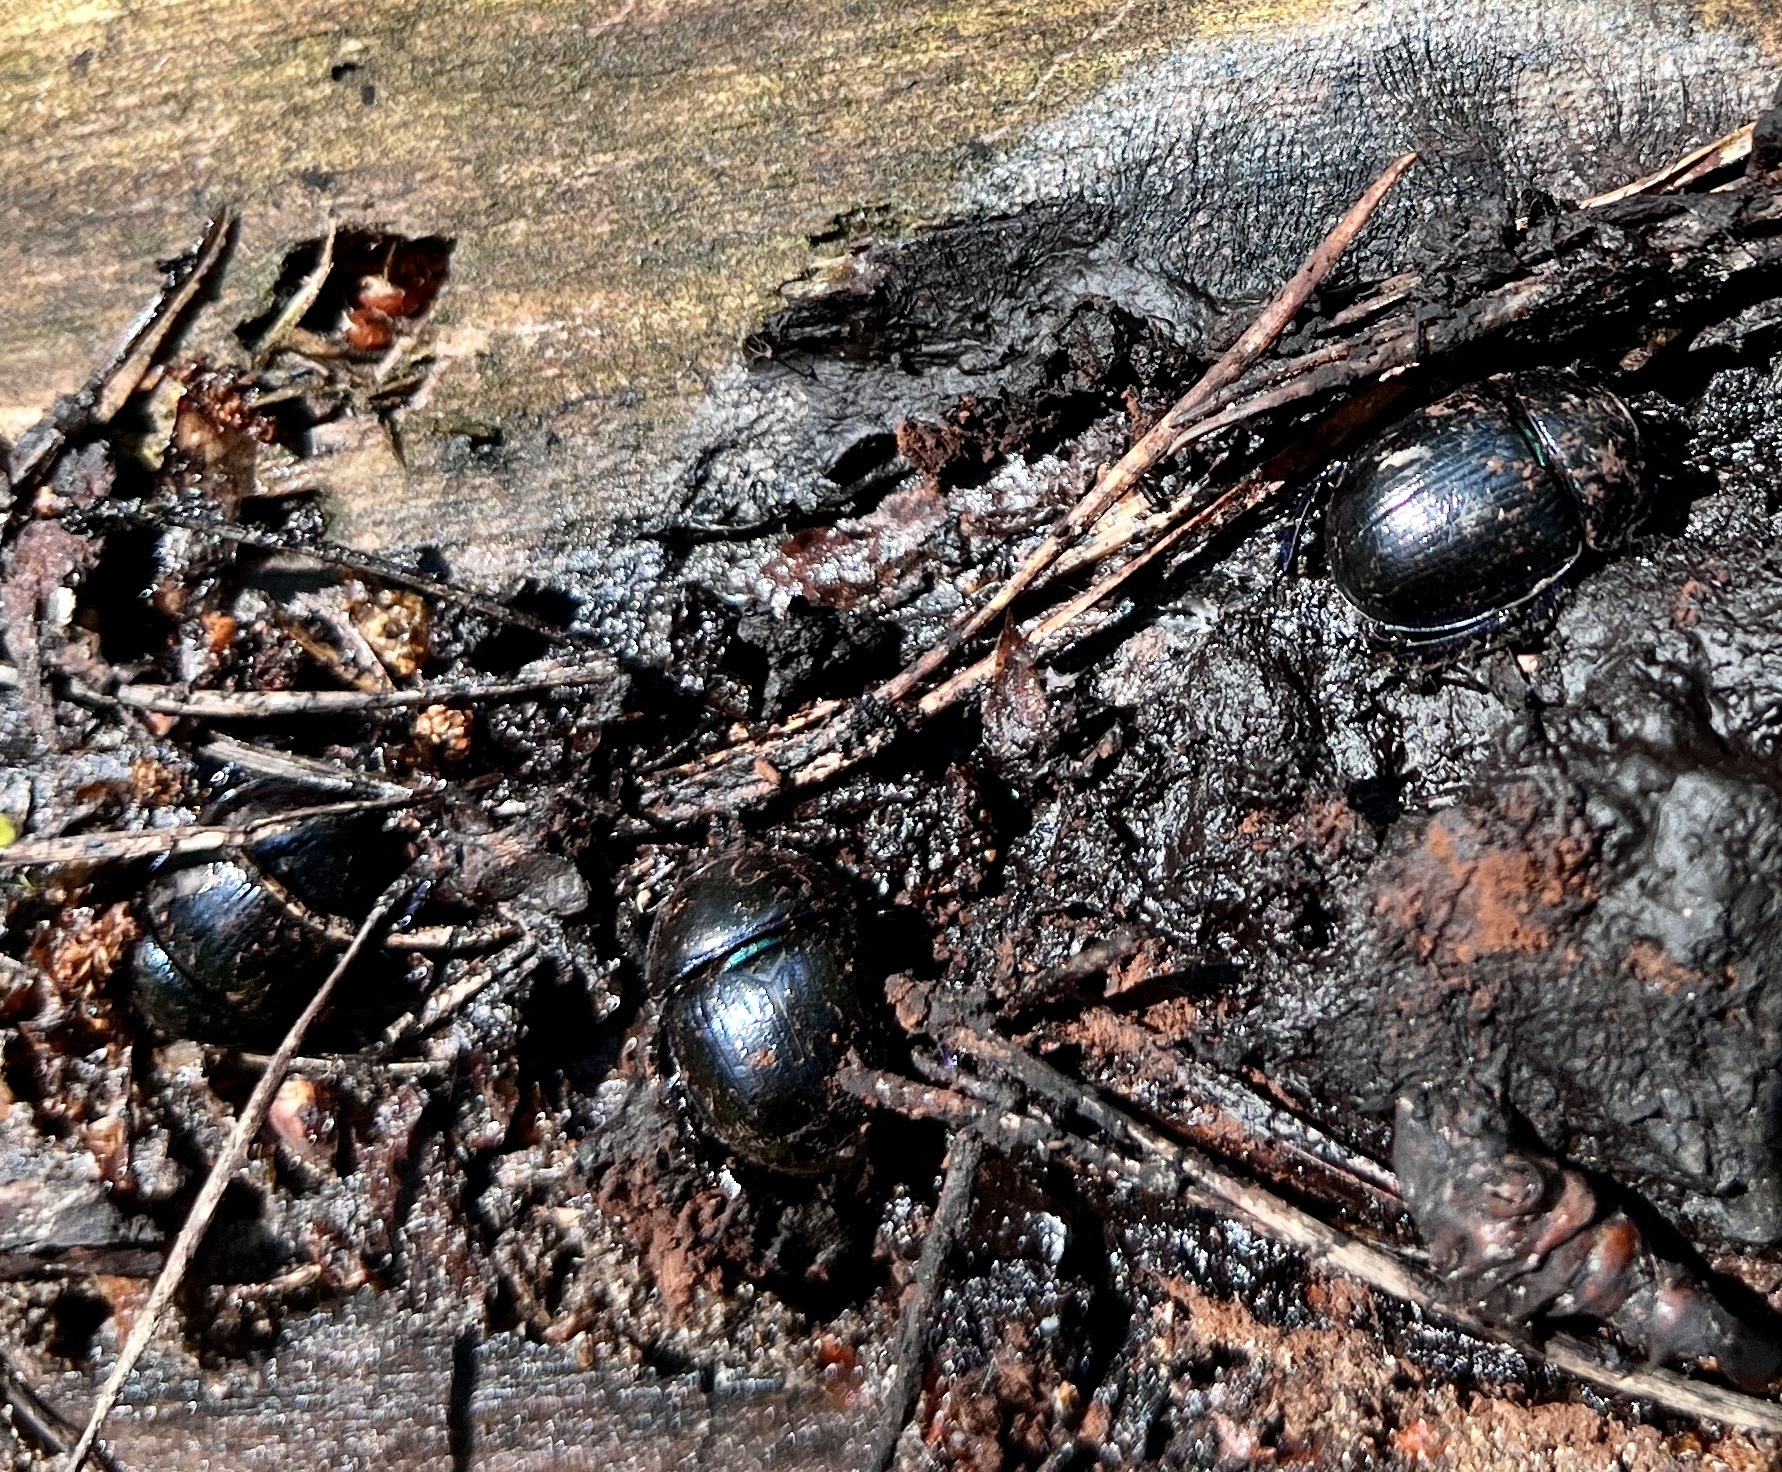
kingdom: Animalia
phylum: Arthropoda
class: Insecta
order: Coleoptera
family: Geotrupidae
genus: Anoplotrupes
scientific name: Anoplotrupes stercorosus
